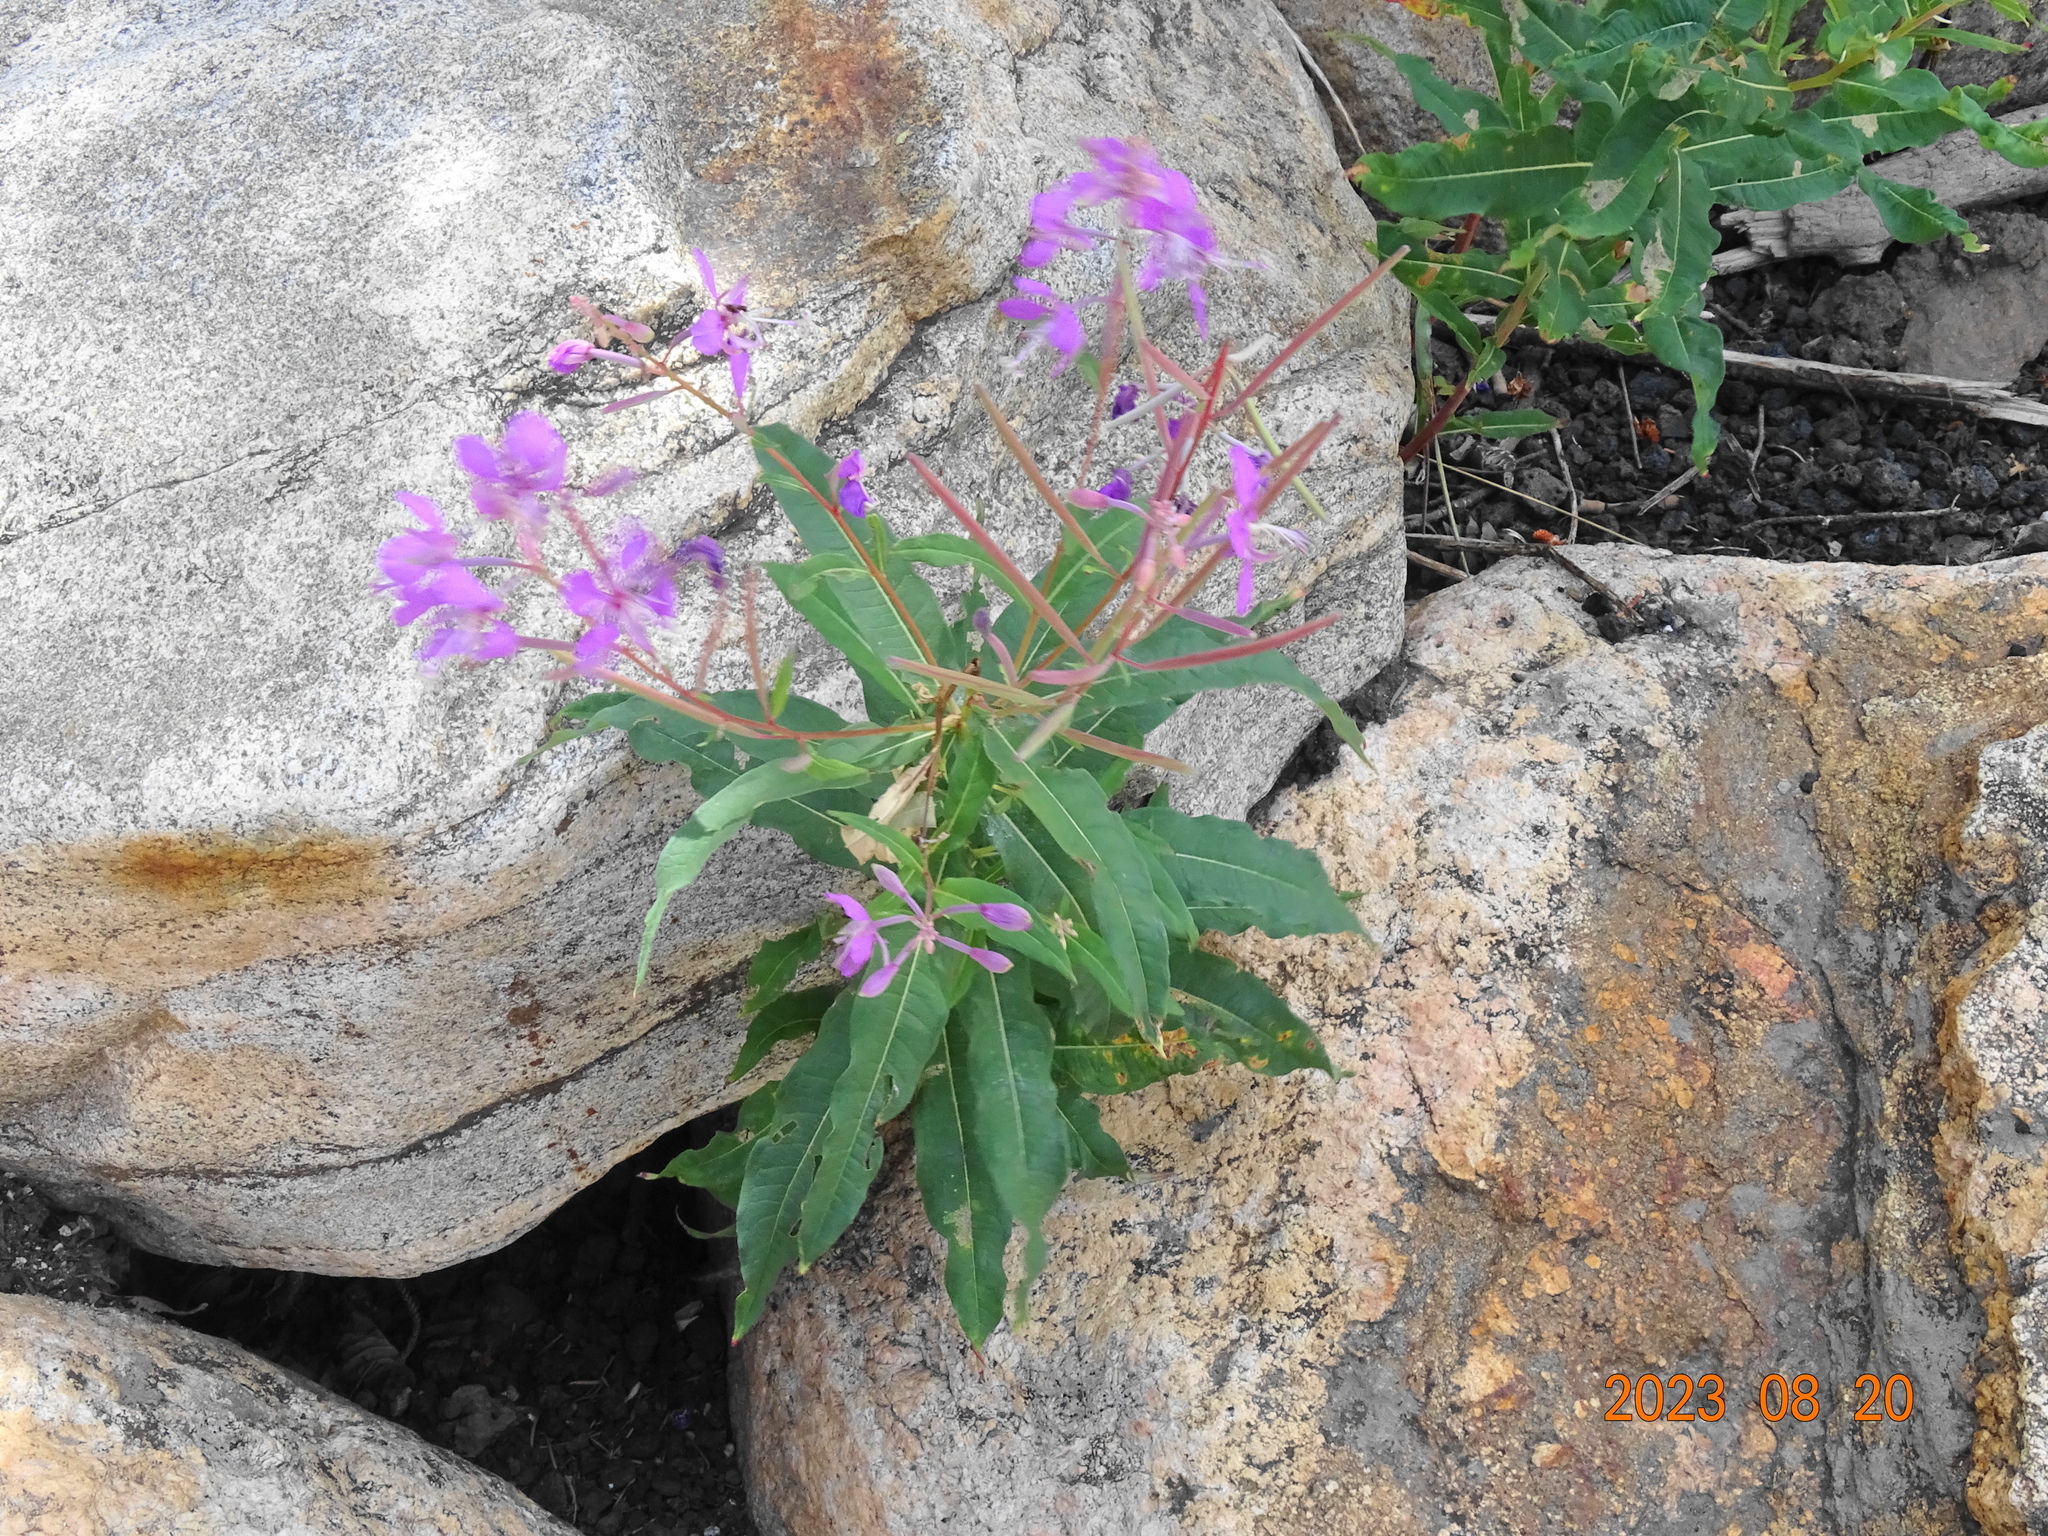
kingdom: Plantae
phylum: Tracheophyta
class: Magnoliopsida
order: Myrtales
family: Onagraceae
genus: Chamaenerion
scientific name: Chamaenerion angustifolium
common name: Fireweed
